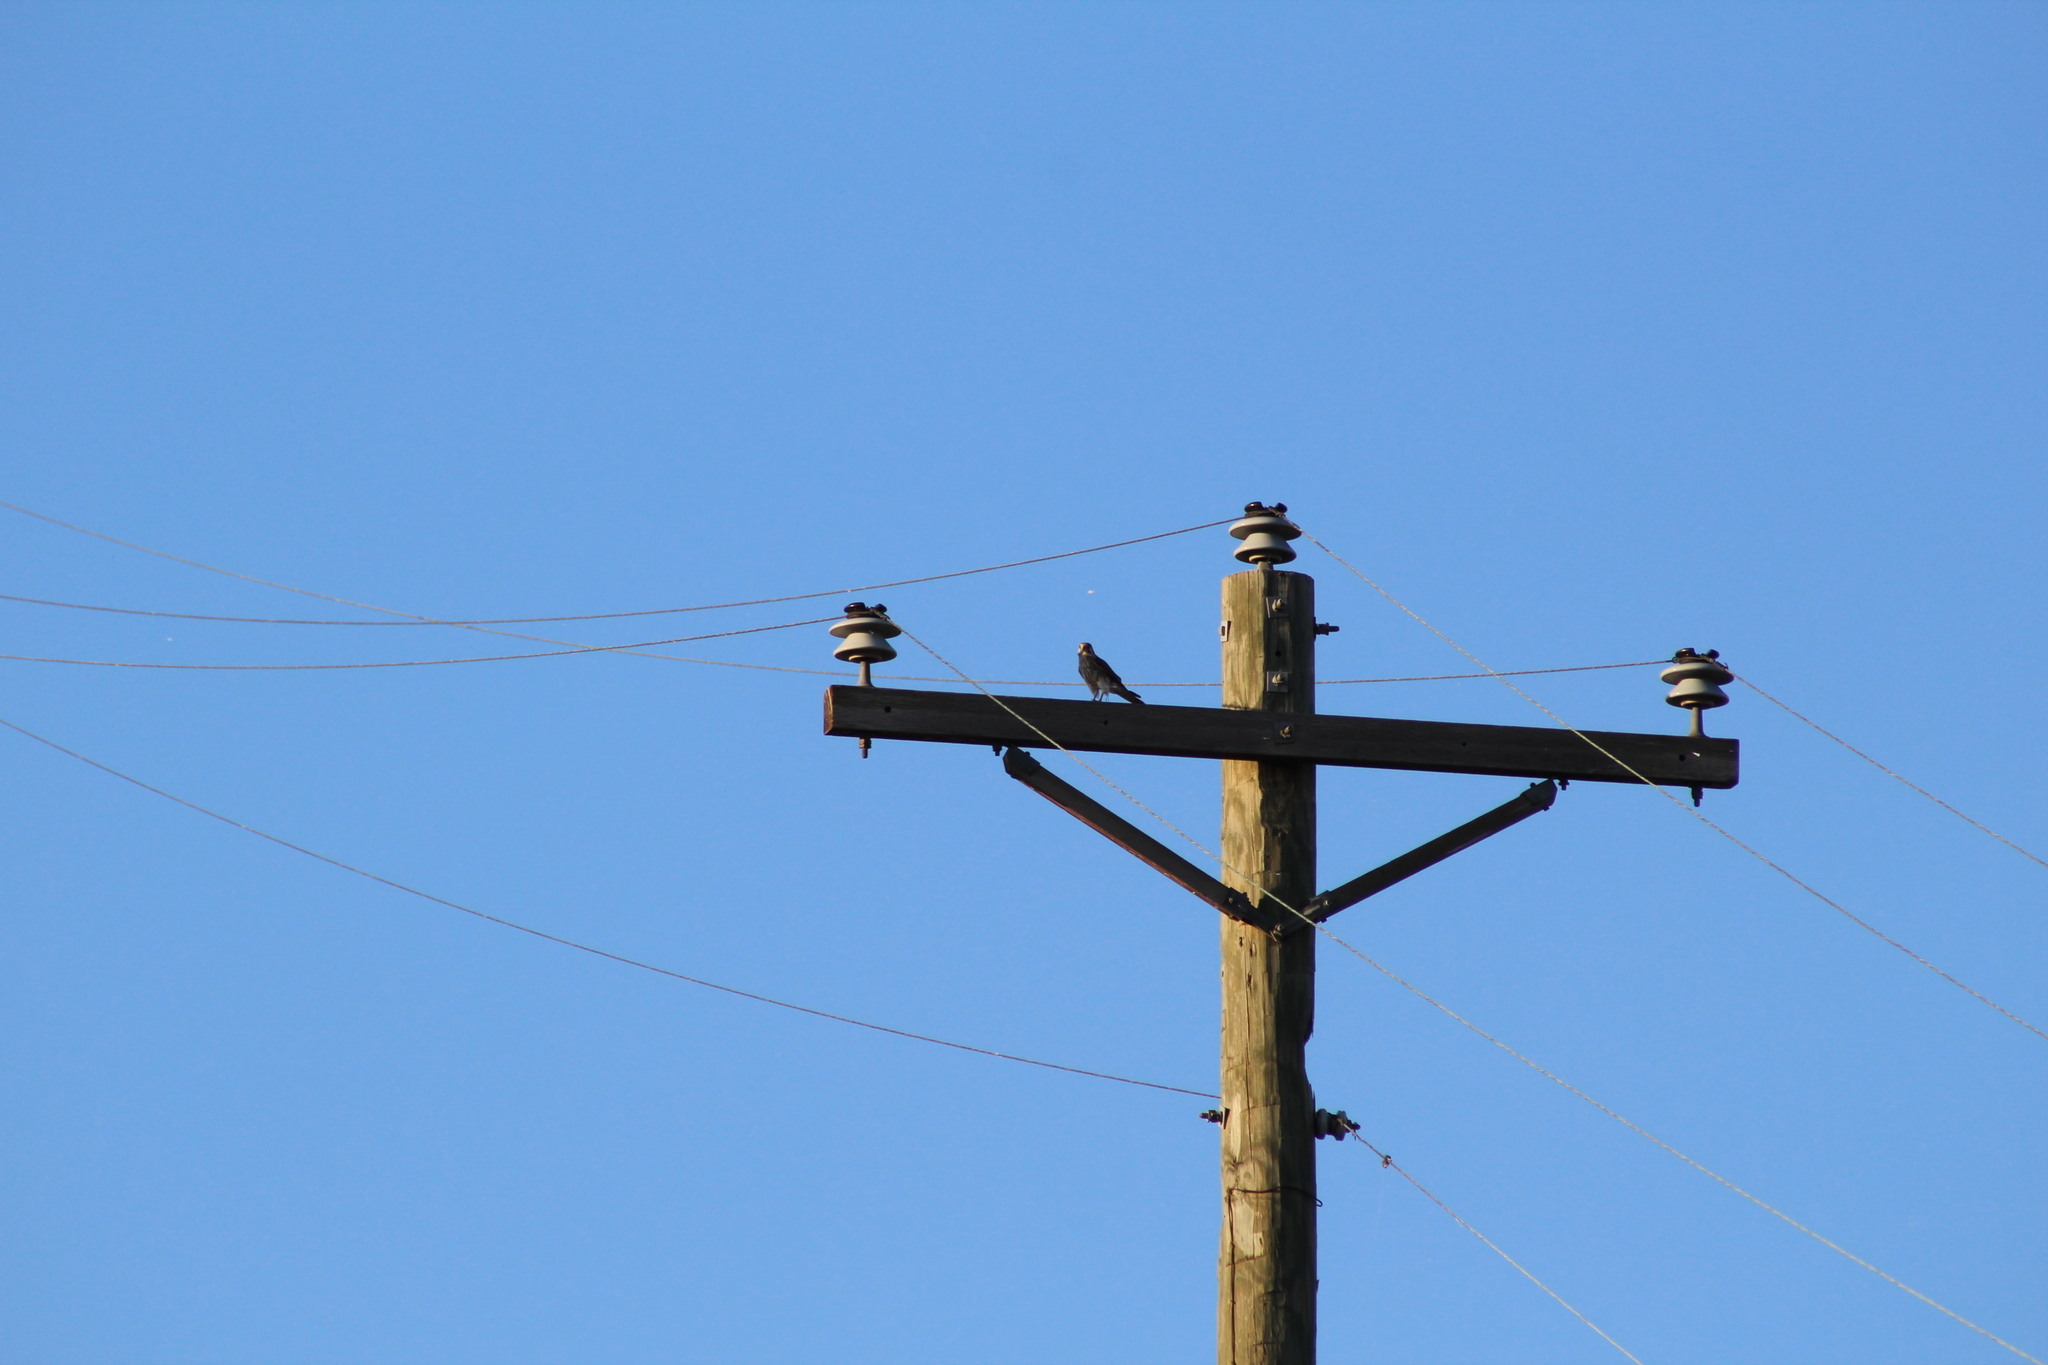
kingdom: Animalia
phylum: Chordata
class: Aves
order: Falconiformes
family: Falconidae
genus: Falco
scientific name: Falco sparverius
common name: American kestrel
